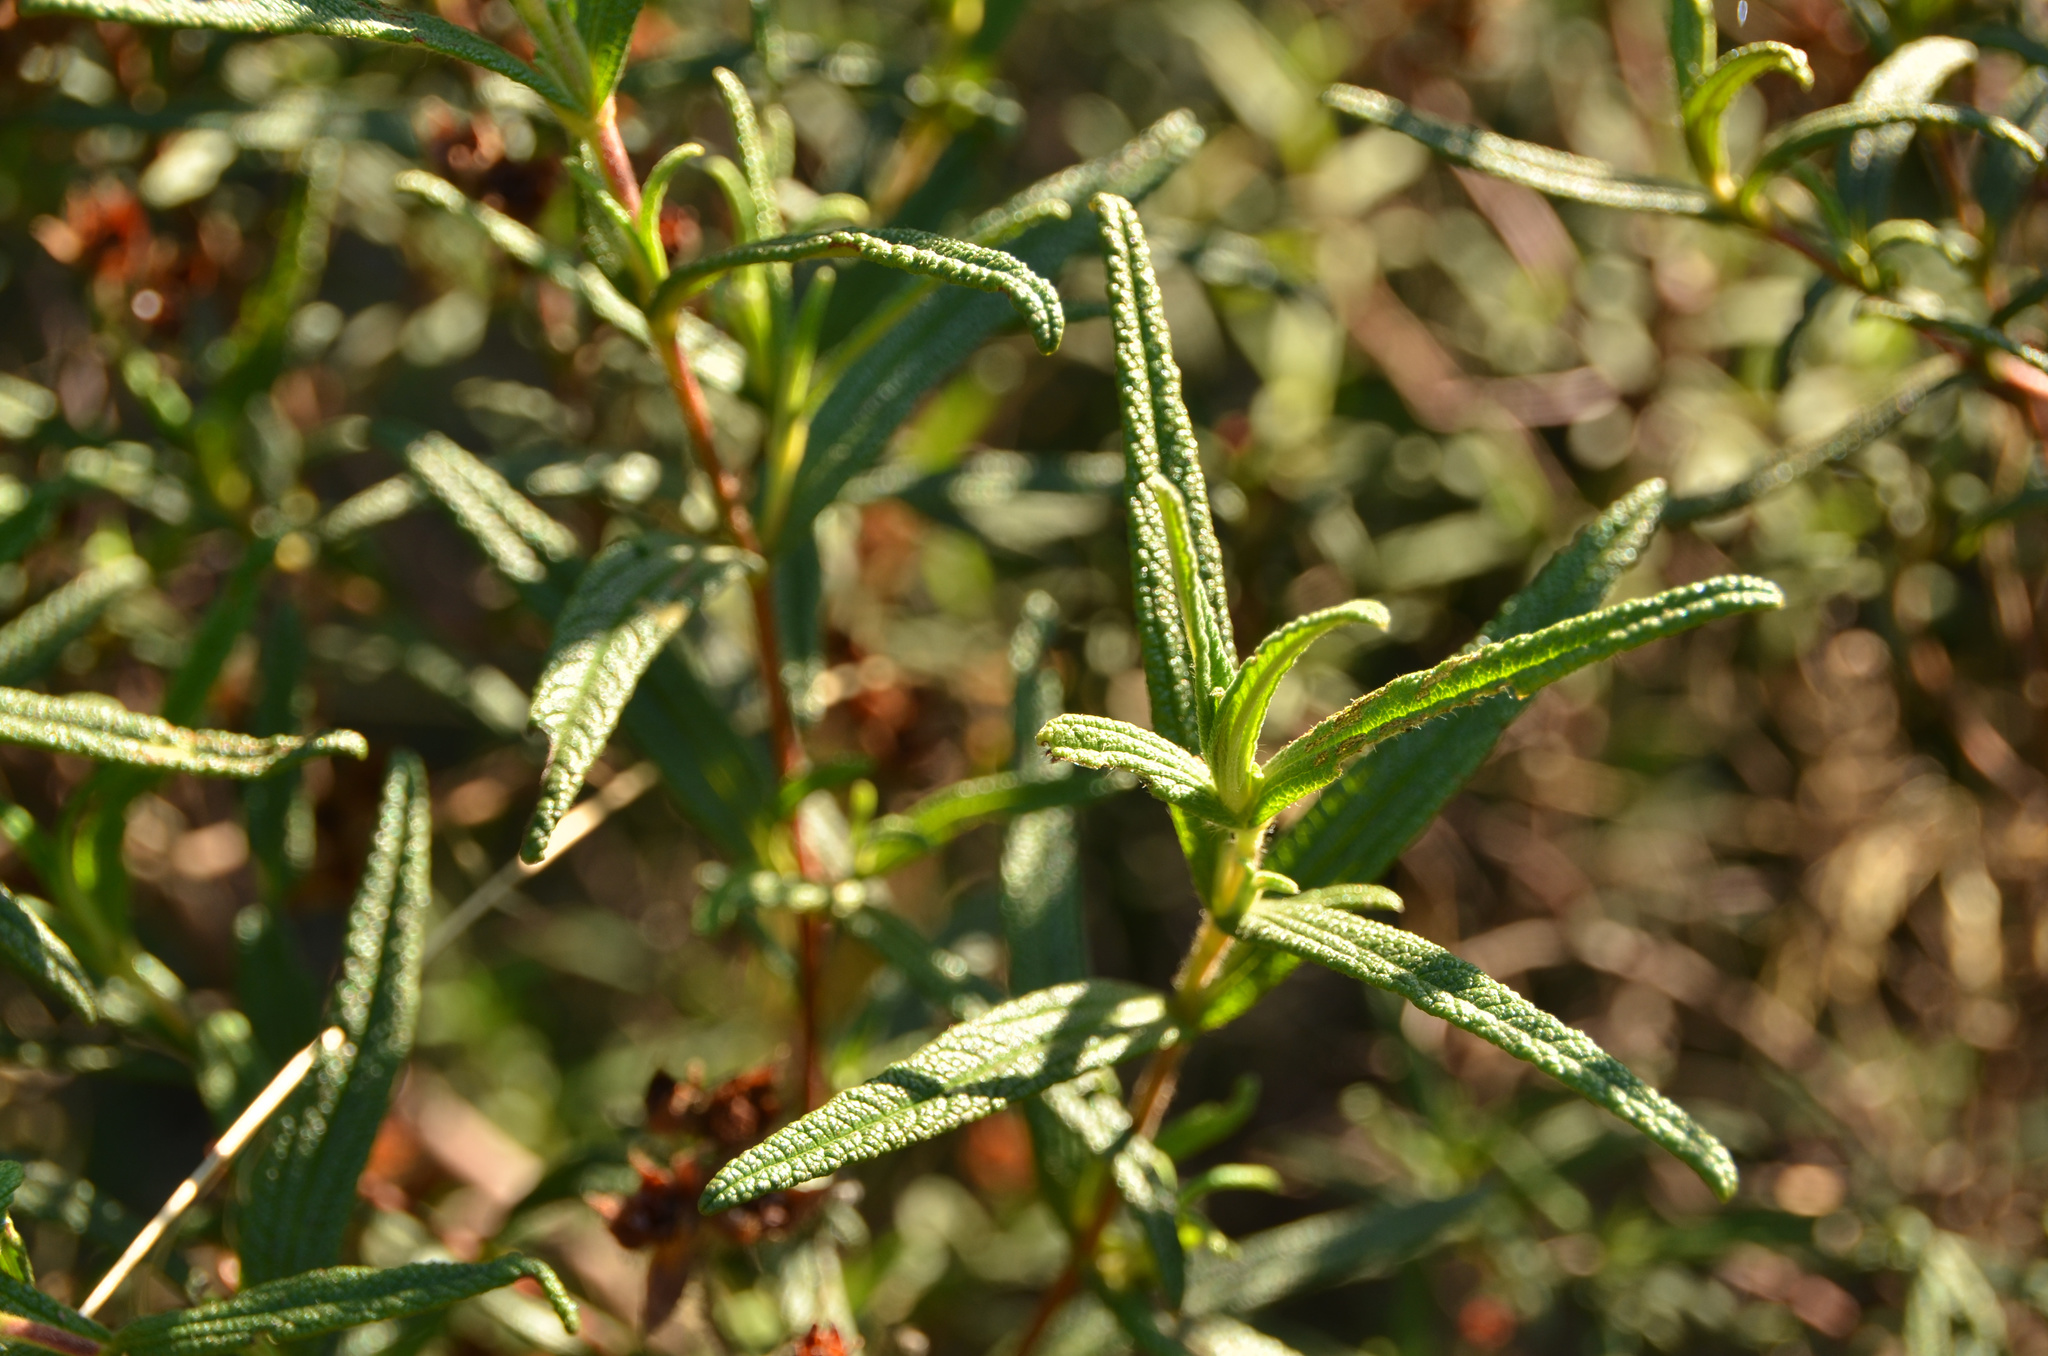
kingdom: Plantae
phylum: Tracheophyta
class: Magnoliopsida
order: Malvales
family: Cistaceae
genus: Cistus
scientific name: Cistus monspeliensis
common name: Montpelier cistus
